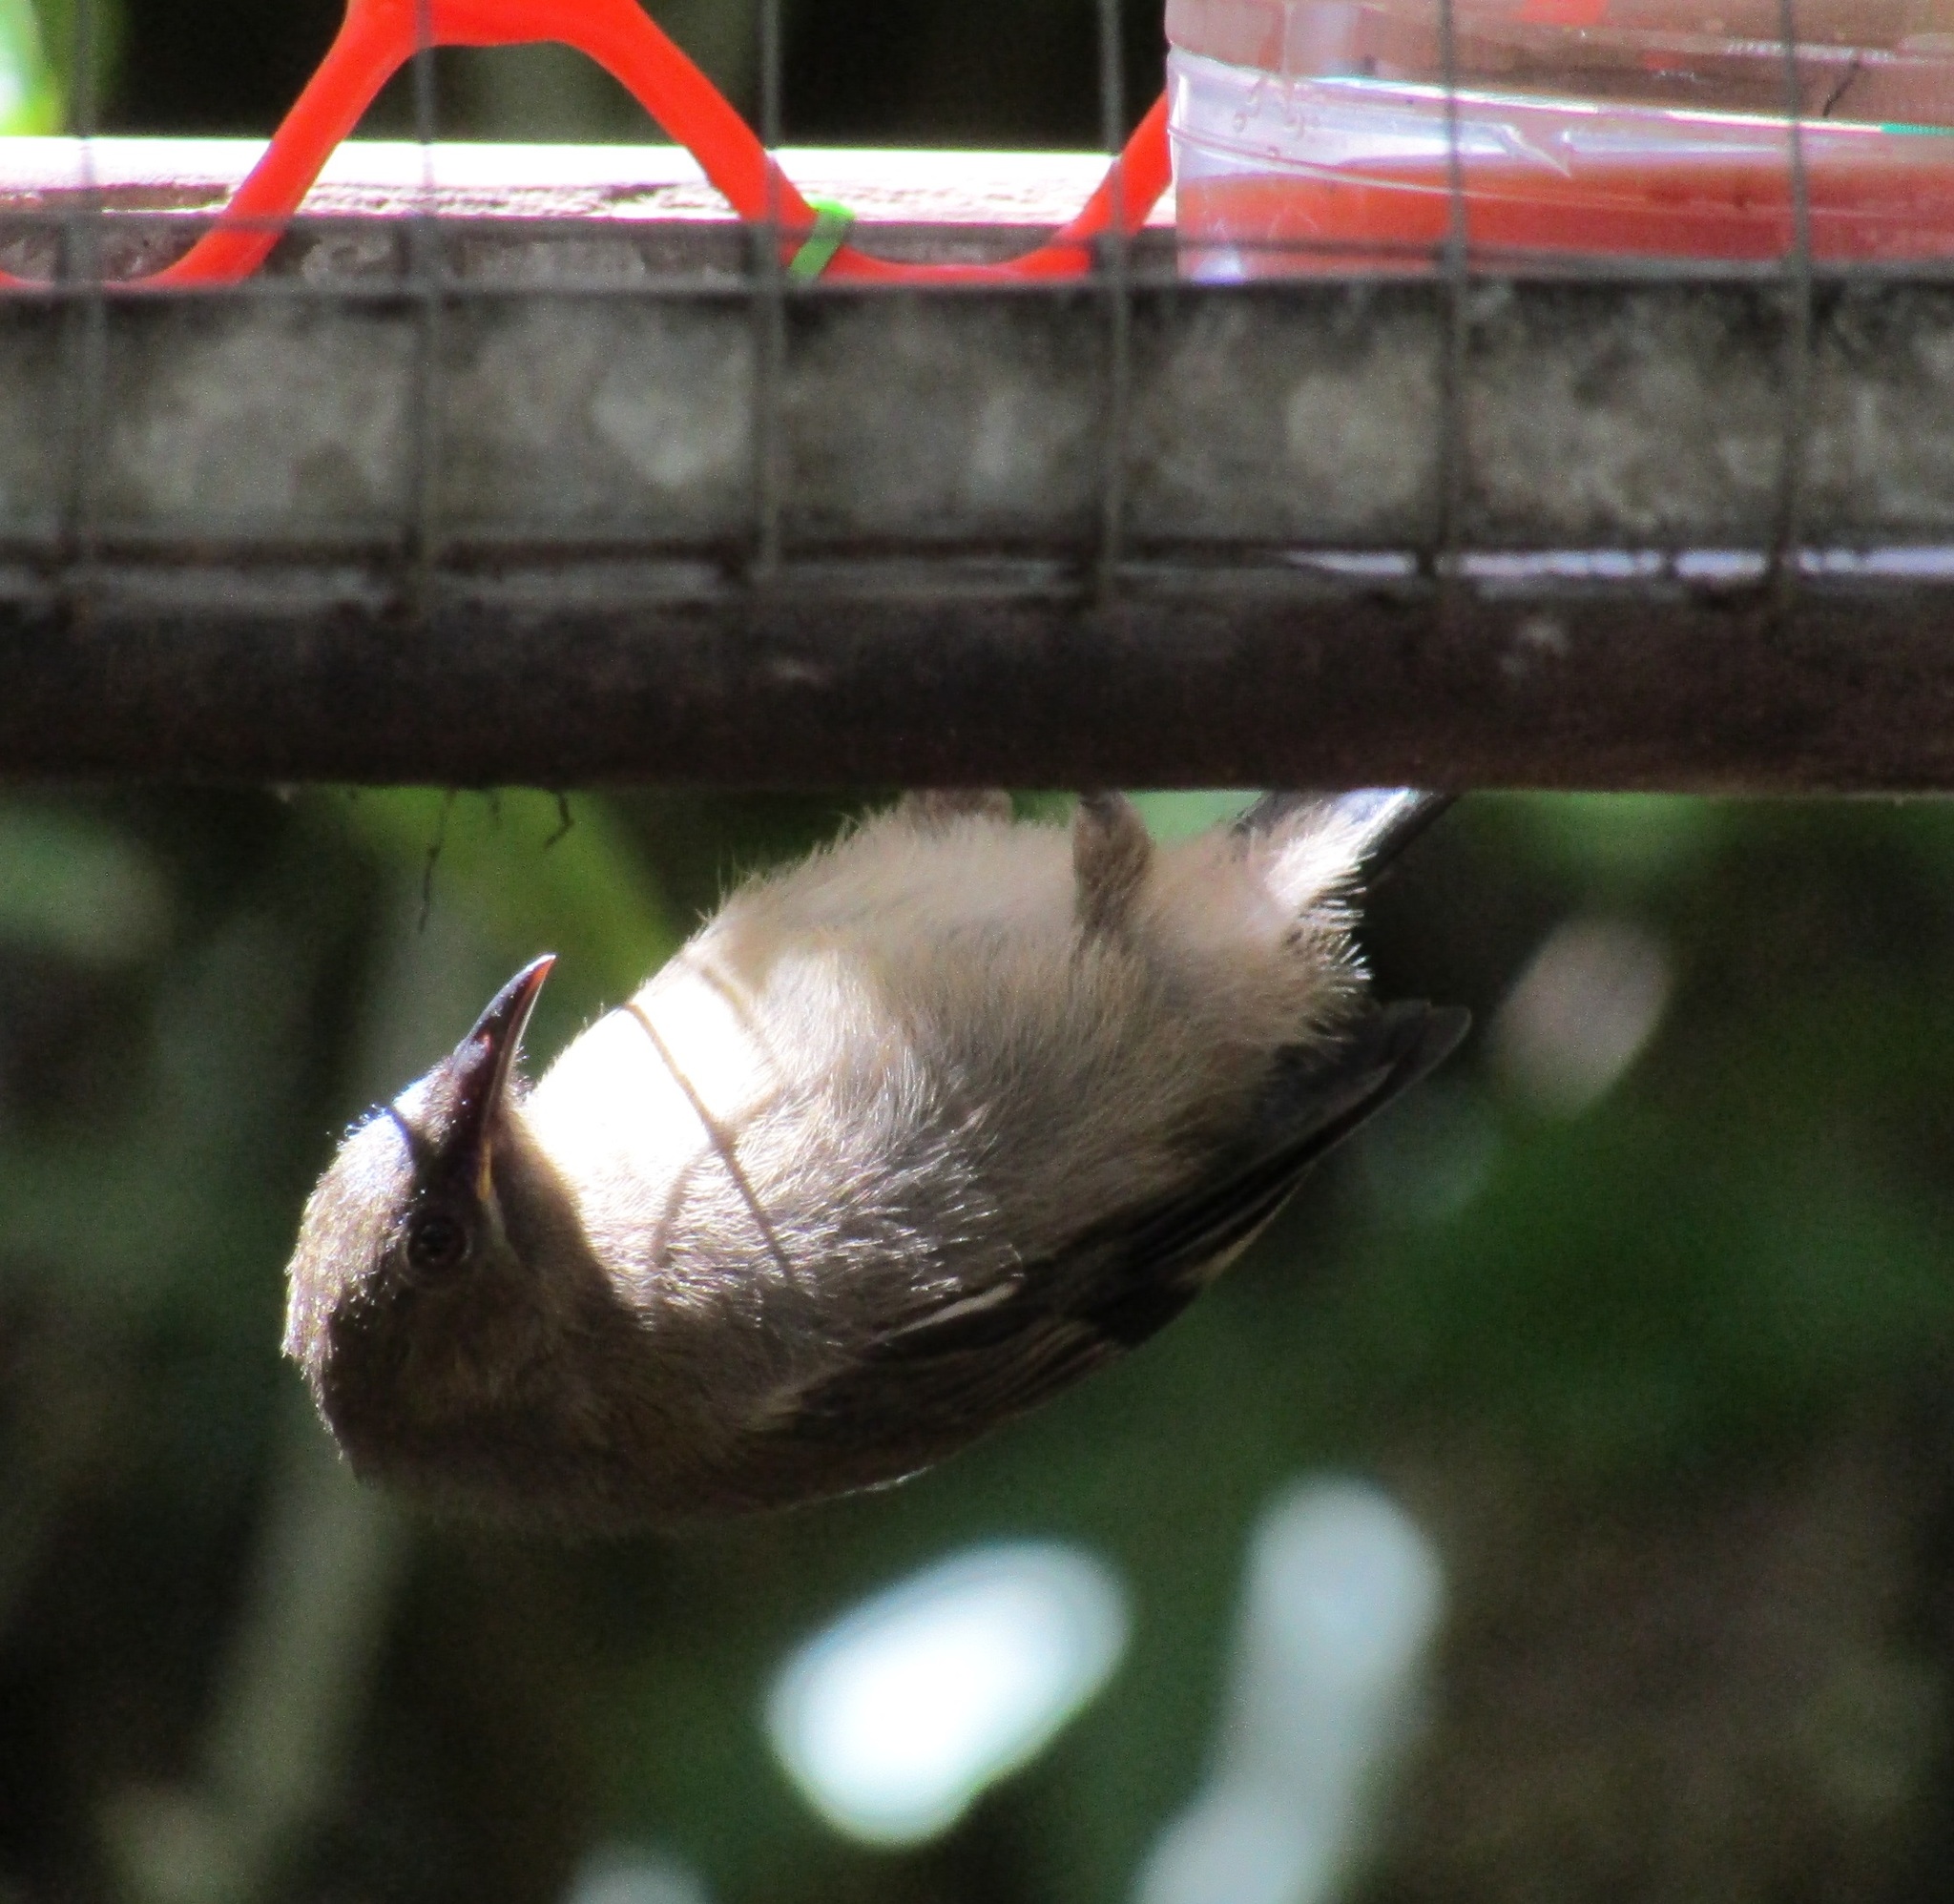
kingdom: Animalia
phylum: Chordata
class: Aves
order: Passeriformes
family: Notiomystidae
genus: Notiomystis
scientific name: Notiomystis cincta
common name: Stitchbird
